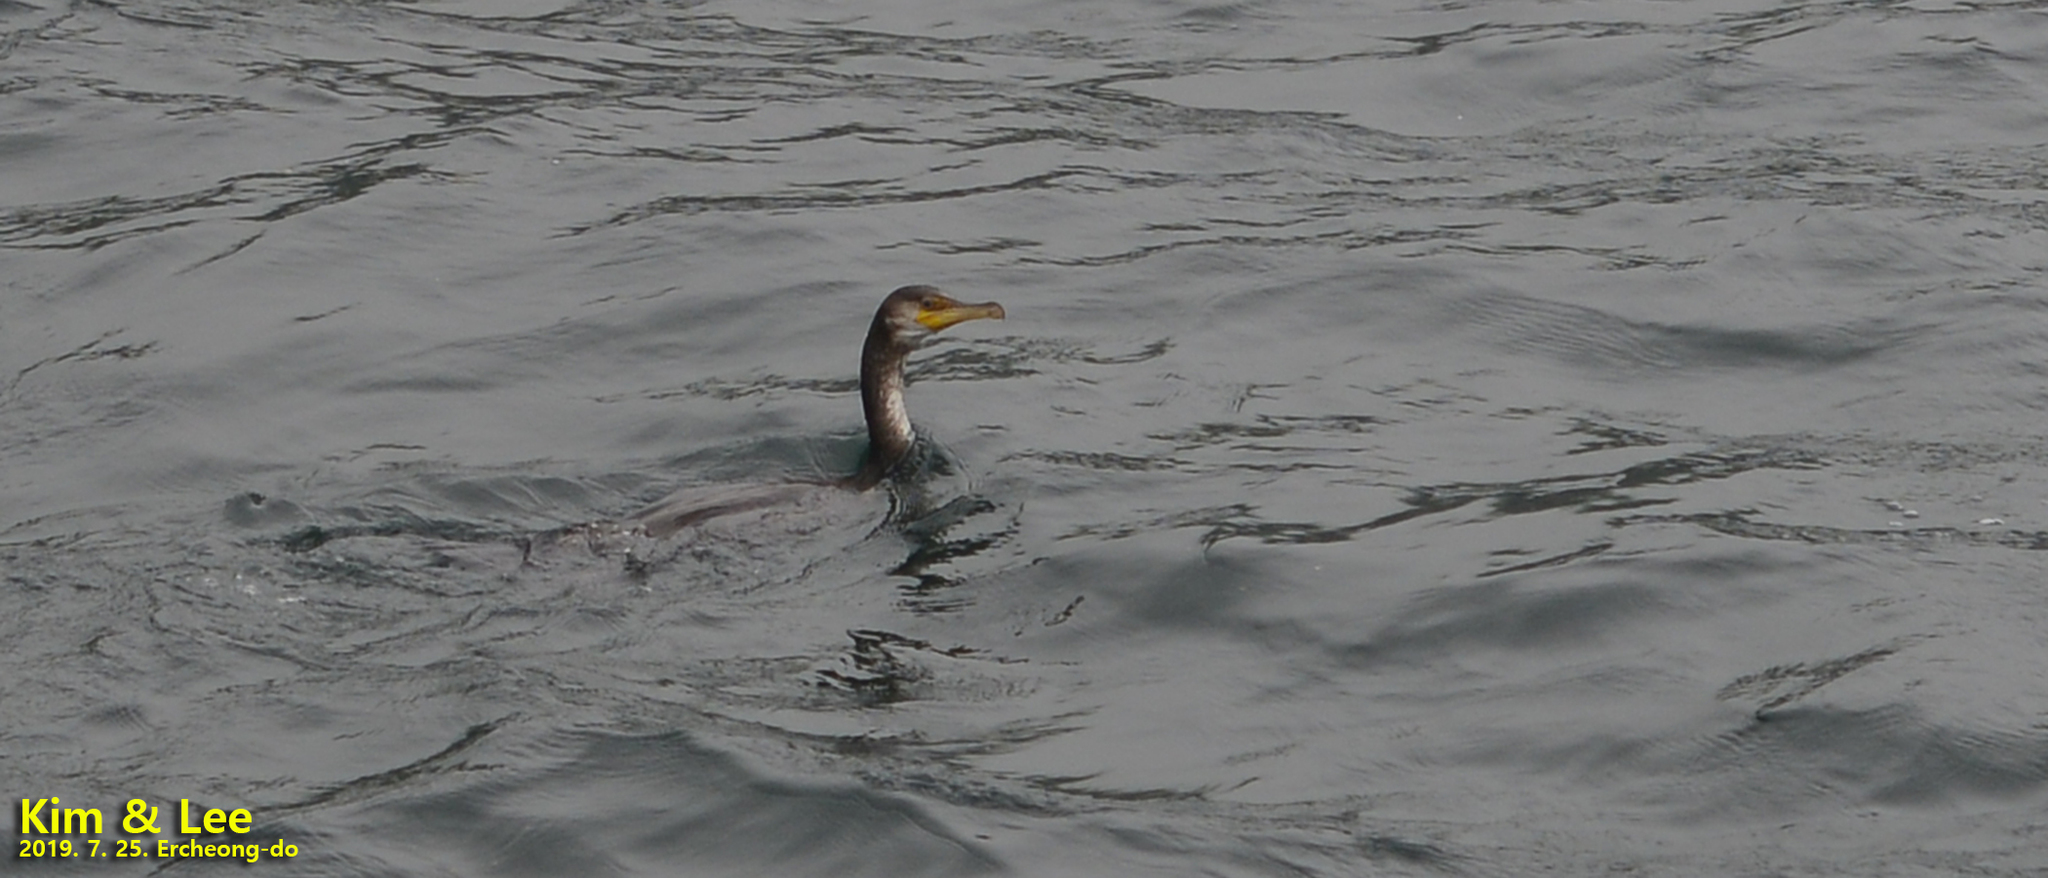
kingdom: Animalia
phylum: Chordata
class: Aves
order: Suliformes
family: Phalacrocoracidae
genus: Phalacrocorax
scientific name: Phalacrocorax capillatus
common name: Japanese cormorant
